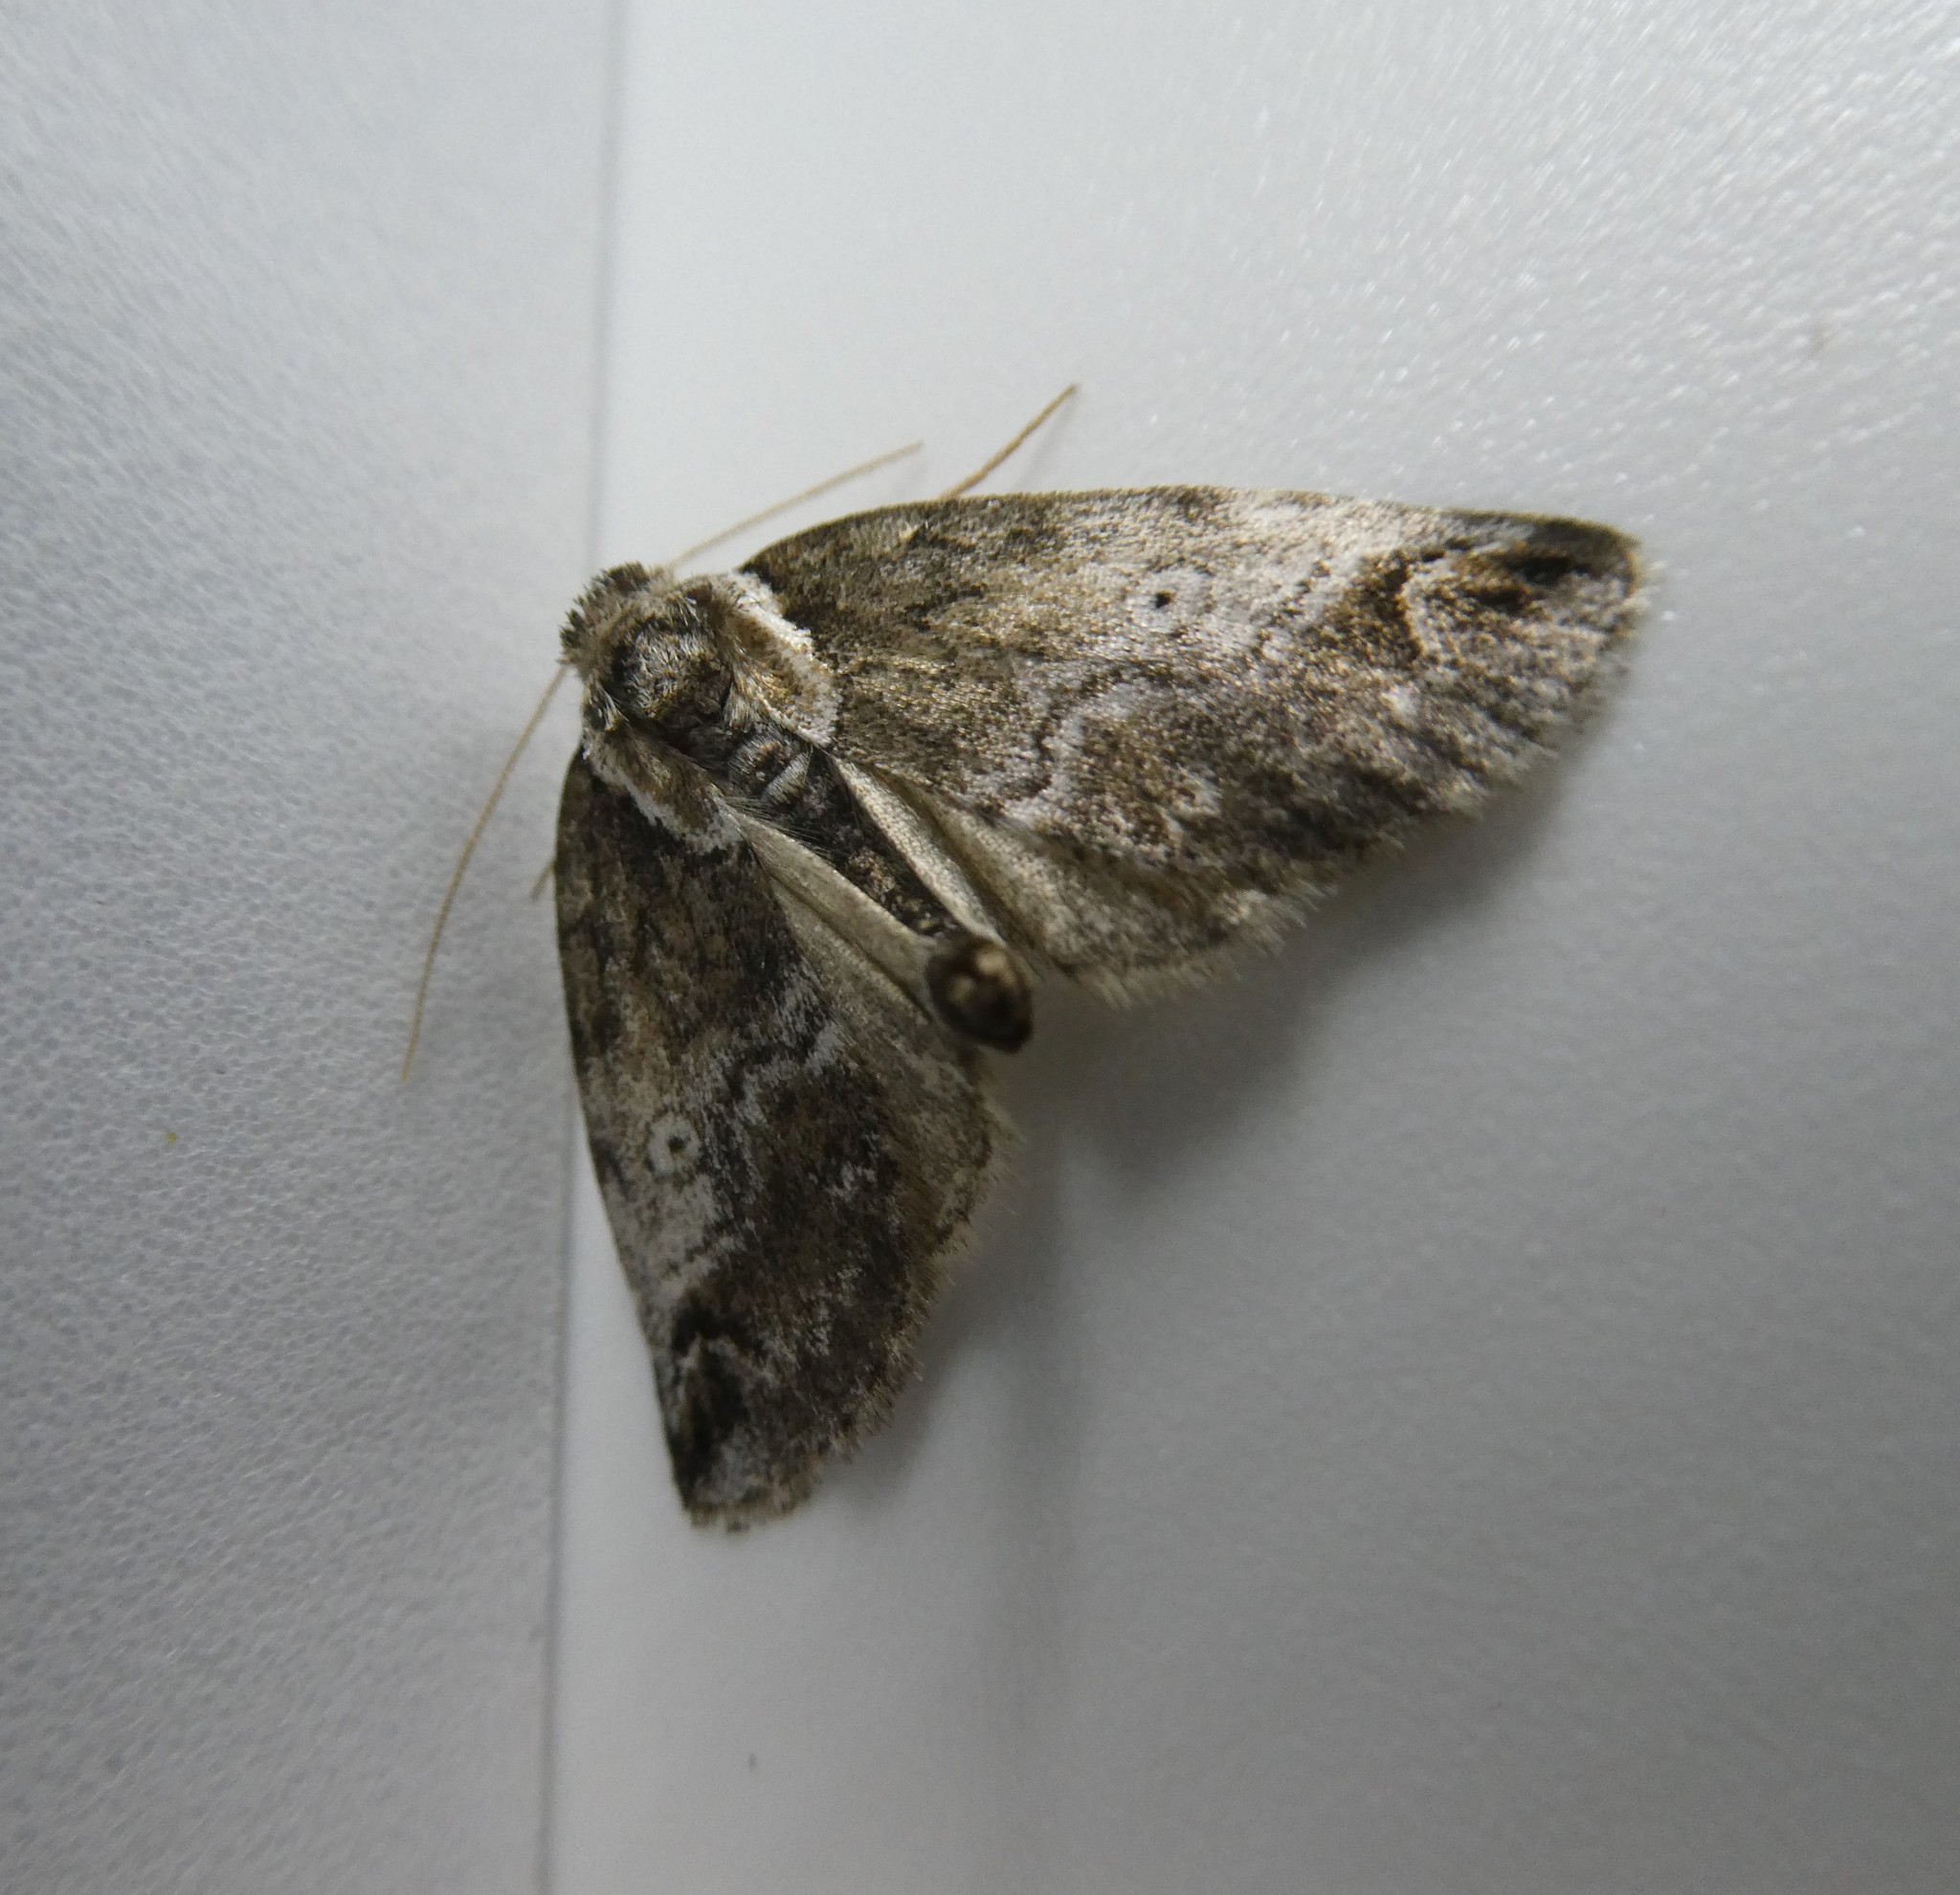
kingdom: Animalia
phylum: Arthropoda
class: Insecta
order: Lepidoptera
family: Nolidae
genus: Baileya
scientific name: Baileya ophthalmica
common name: Eyed baileya moth
